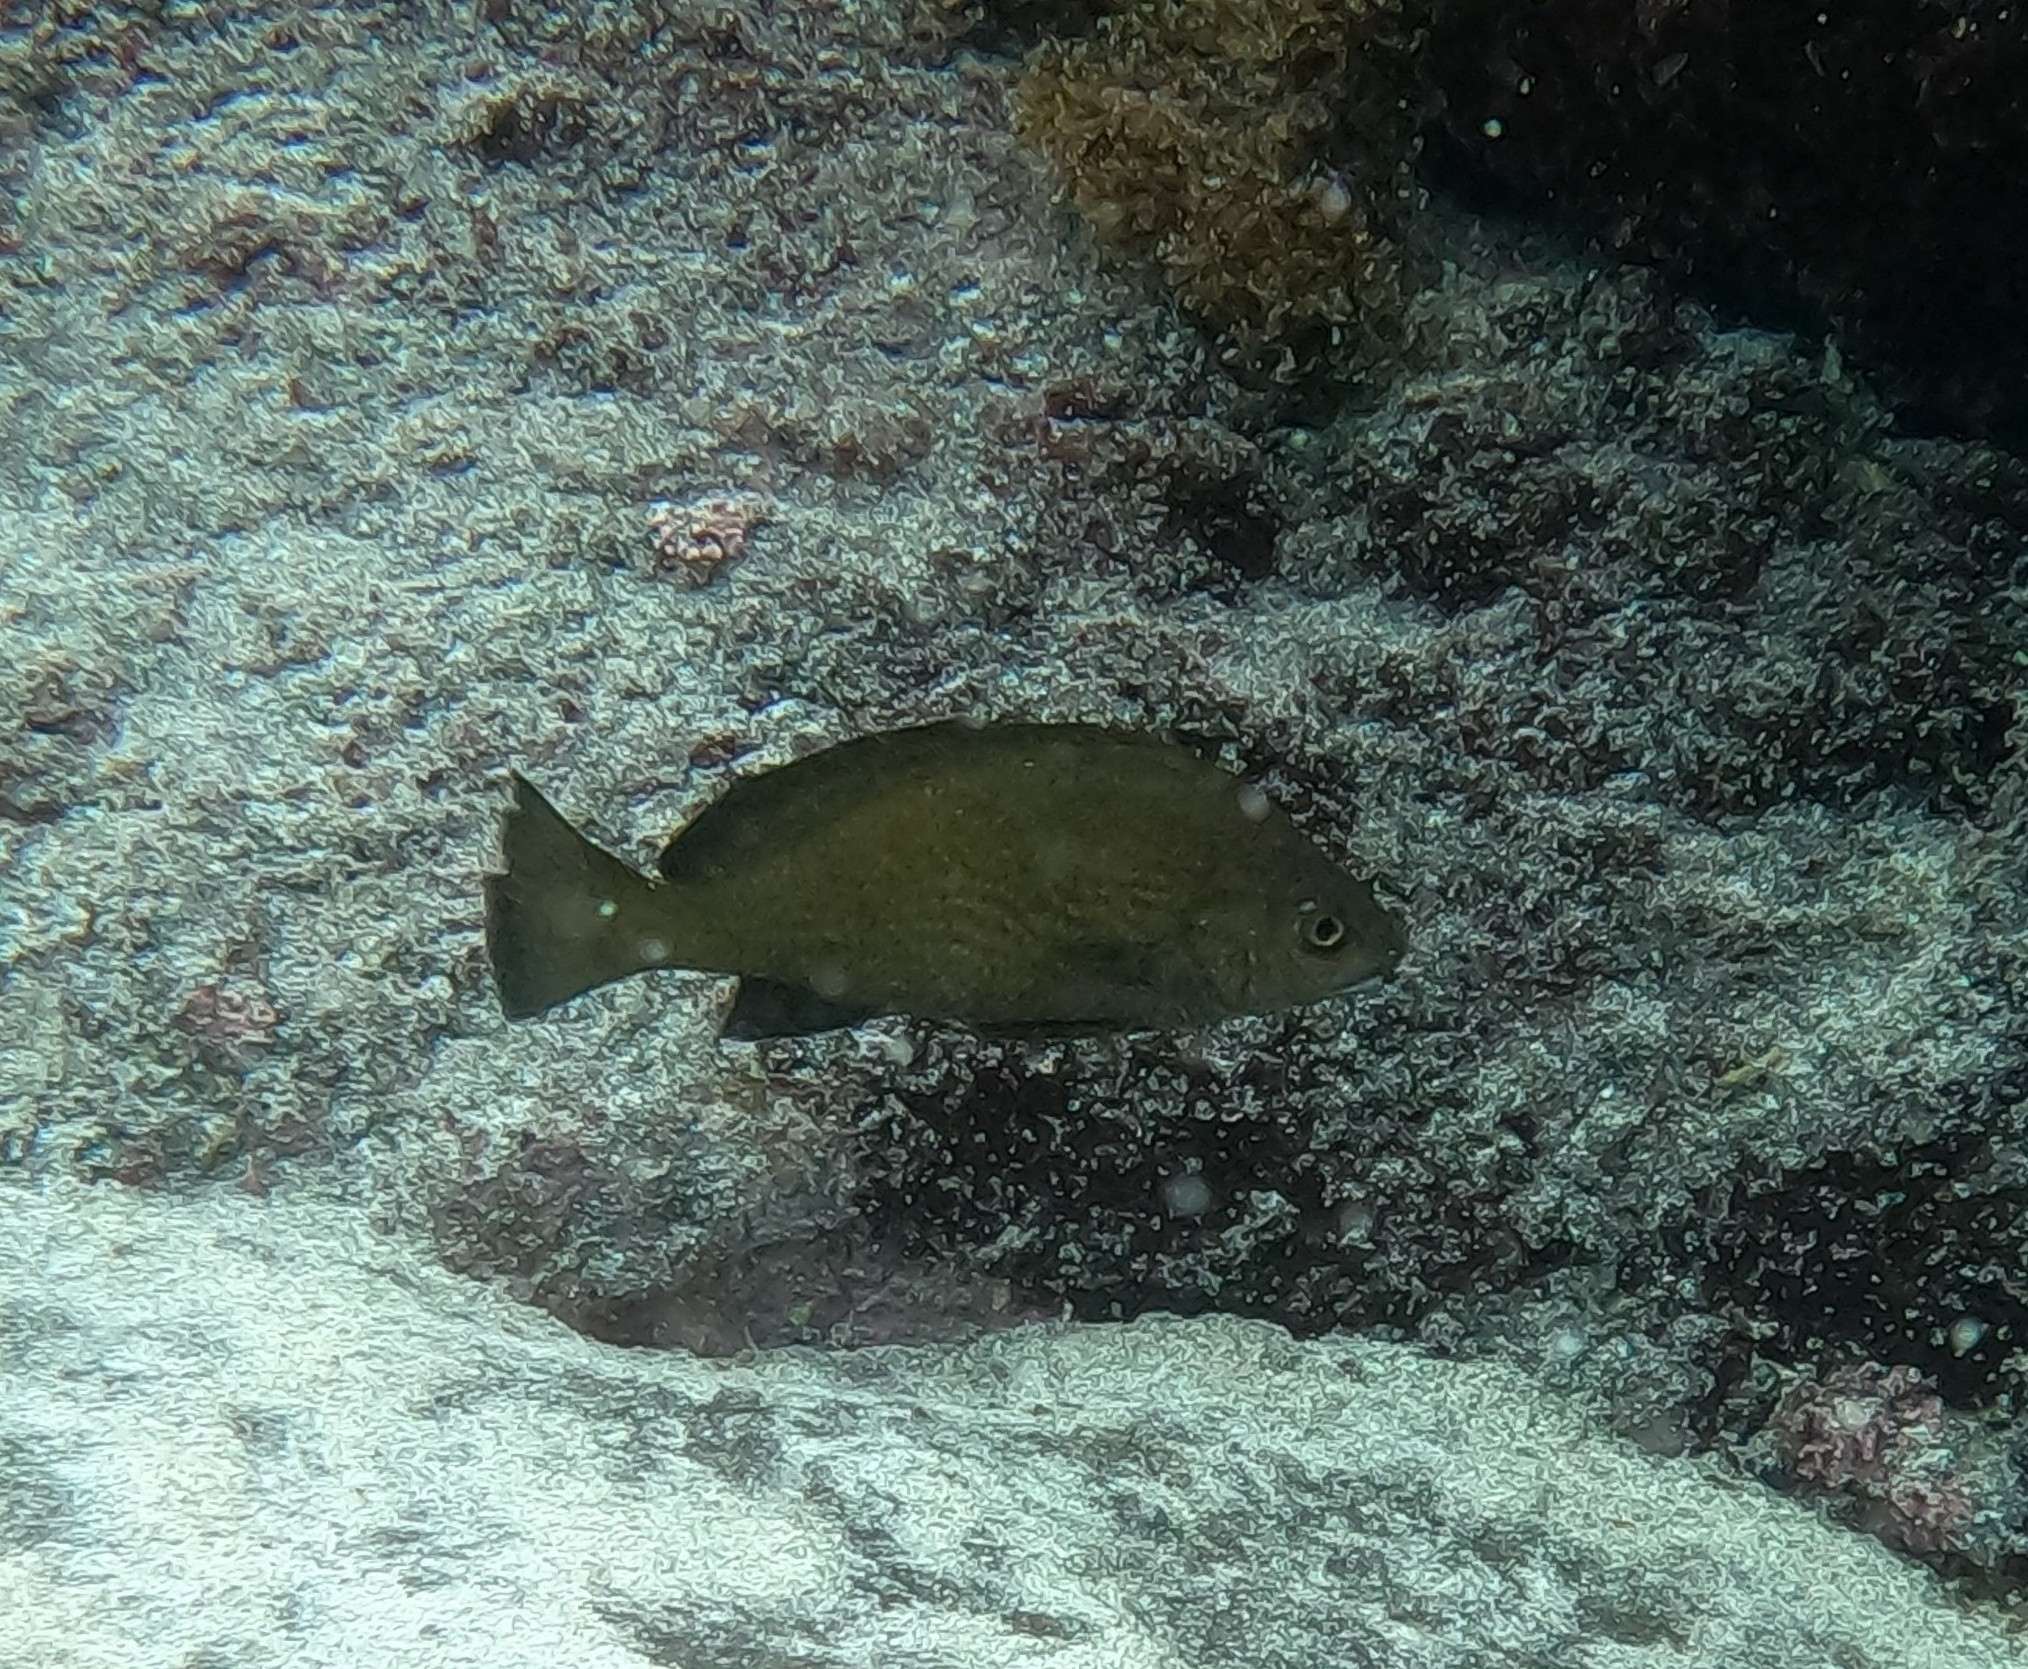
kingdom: Animalia
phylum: Chordata
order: Perciformes
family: Sciaenidae
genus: Umbrina
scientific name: Umbrina canariensis
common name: Baardman
